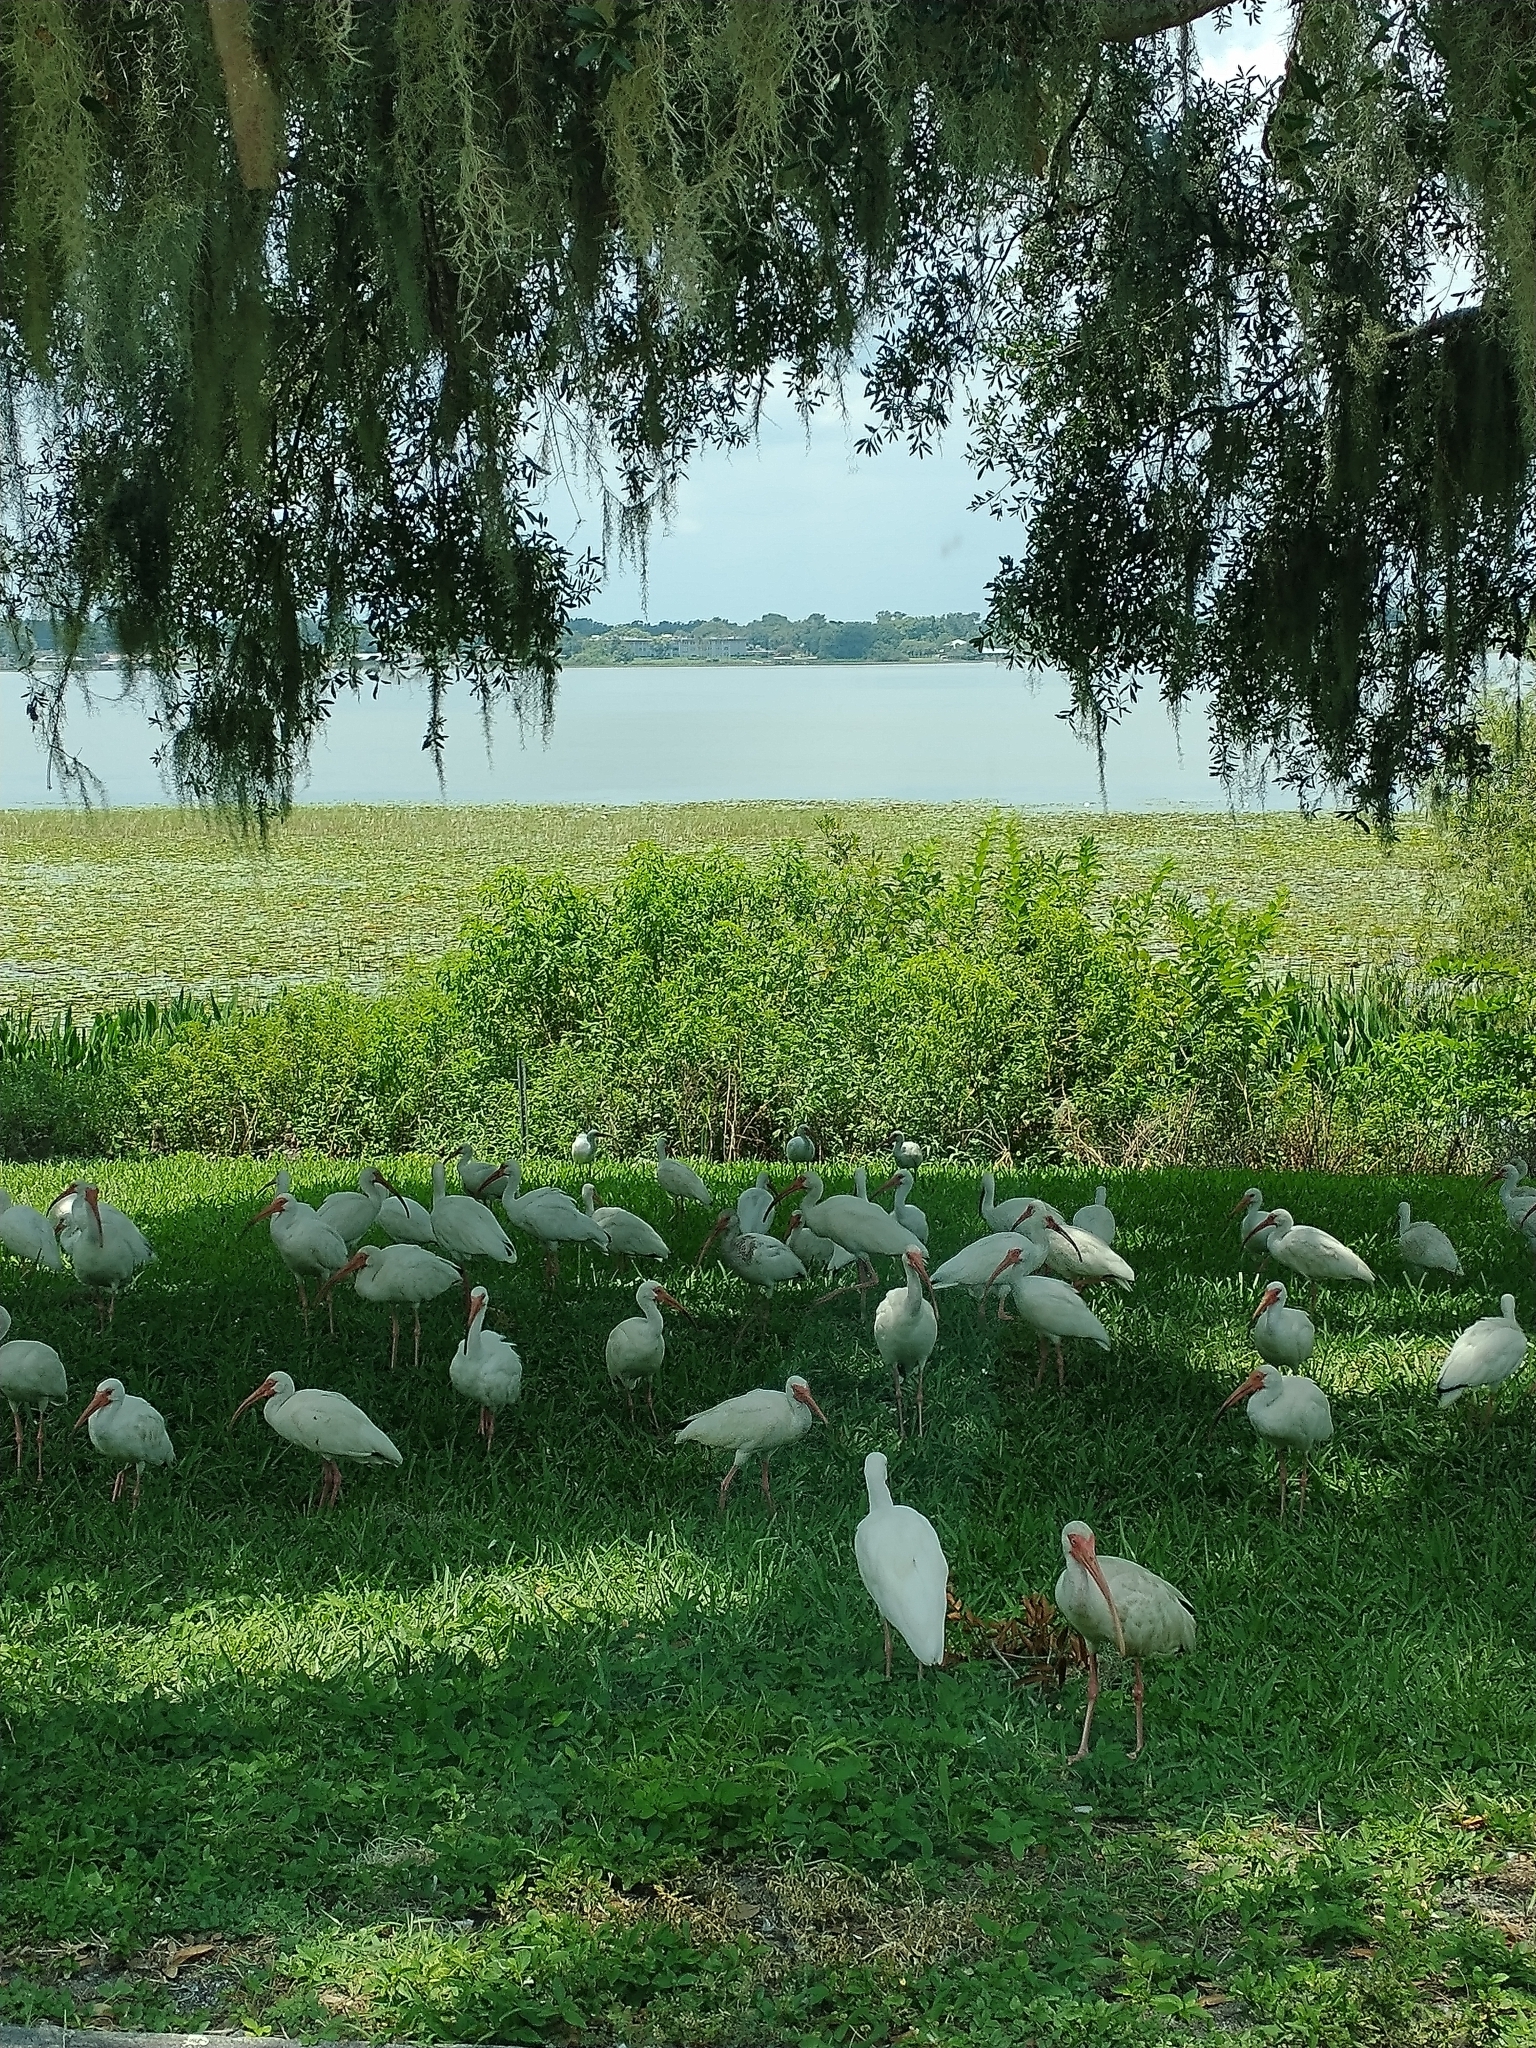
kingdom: Animalia
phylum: Chordata
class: Aves
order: Pelecaniformes
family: Threskiornithidae
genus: Eudocimus
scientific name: Eudocimus albus
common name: White ibis
